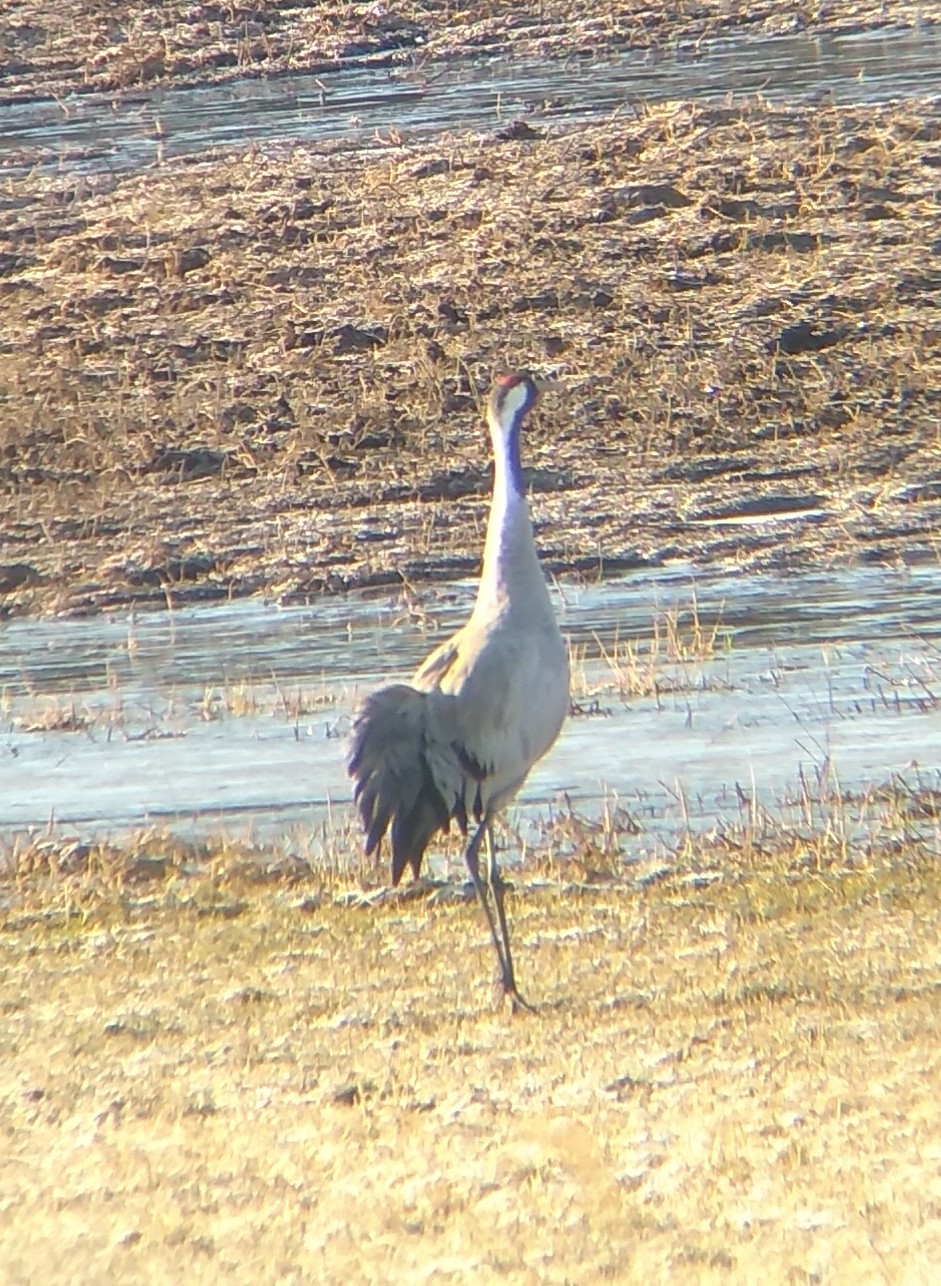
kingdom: Animalia
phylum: Chordata
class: Aves
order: Gruiformes
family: Gruidae
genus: Grus
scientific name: Grus grus
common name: Common crane
